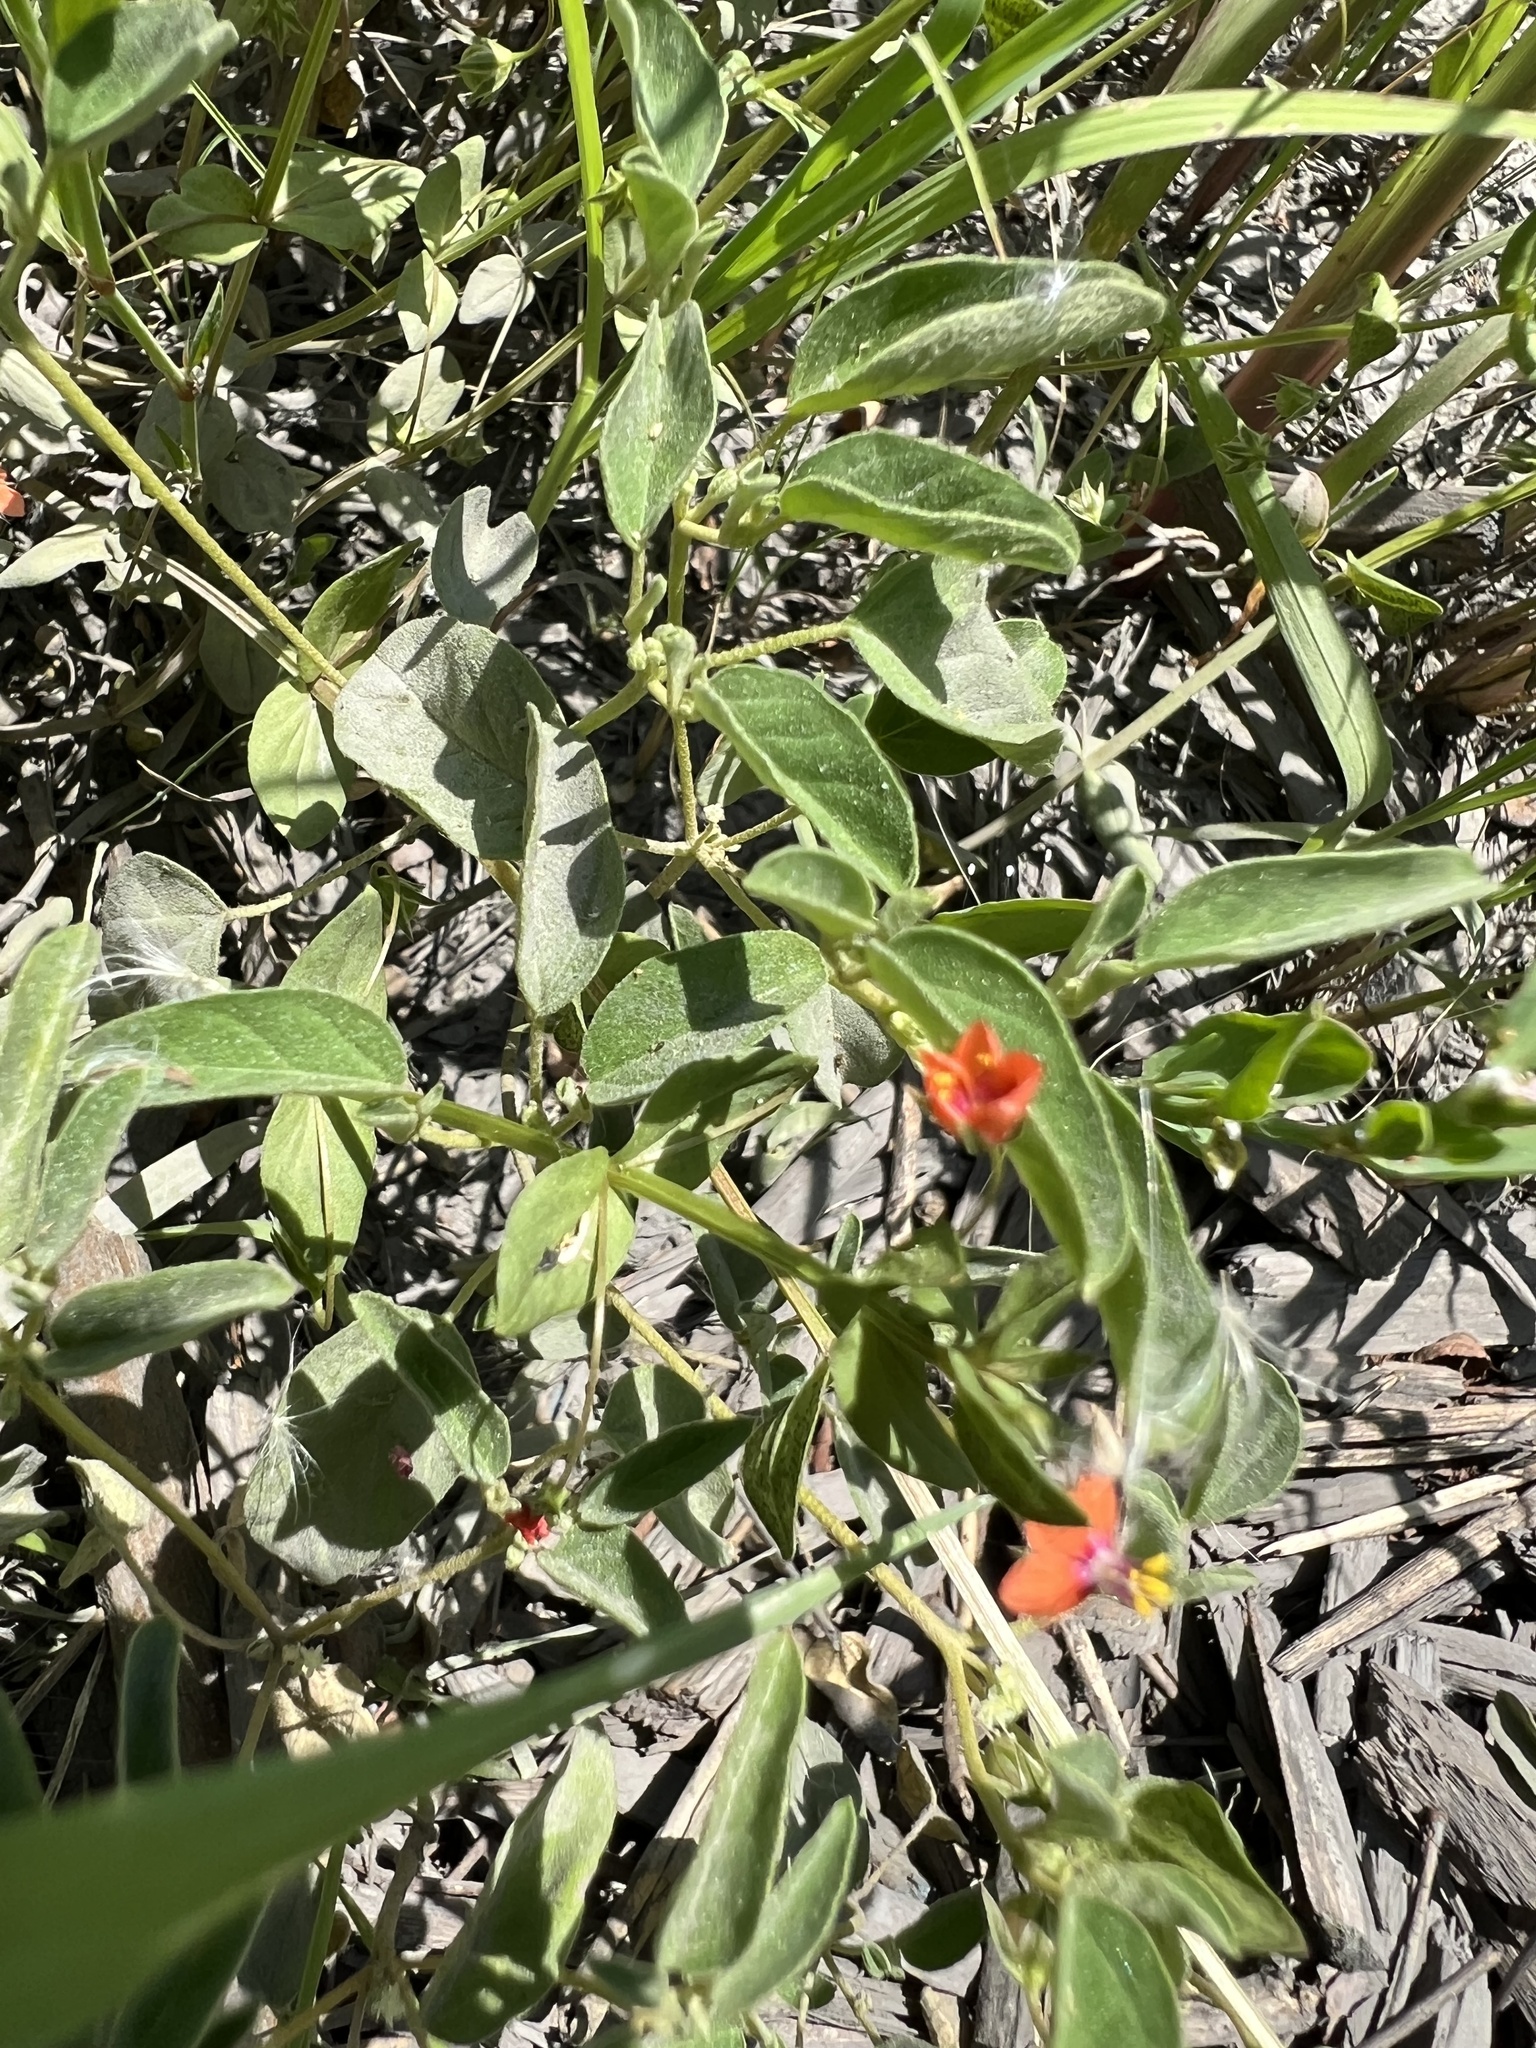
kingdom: Plantae
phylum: Tracheophyta
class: Magnoliopsida
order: Ericales
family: Primulaceae
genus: Lysimachia
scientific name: Lysimachia arvensis
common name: Scarlet pimpernel
